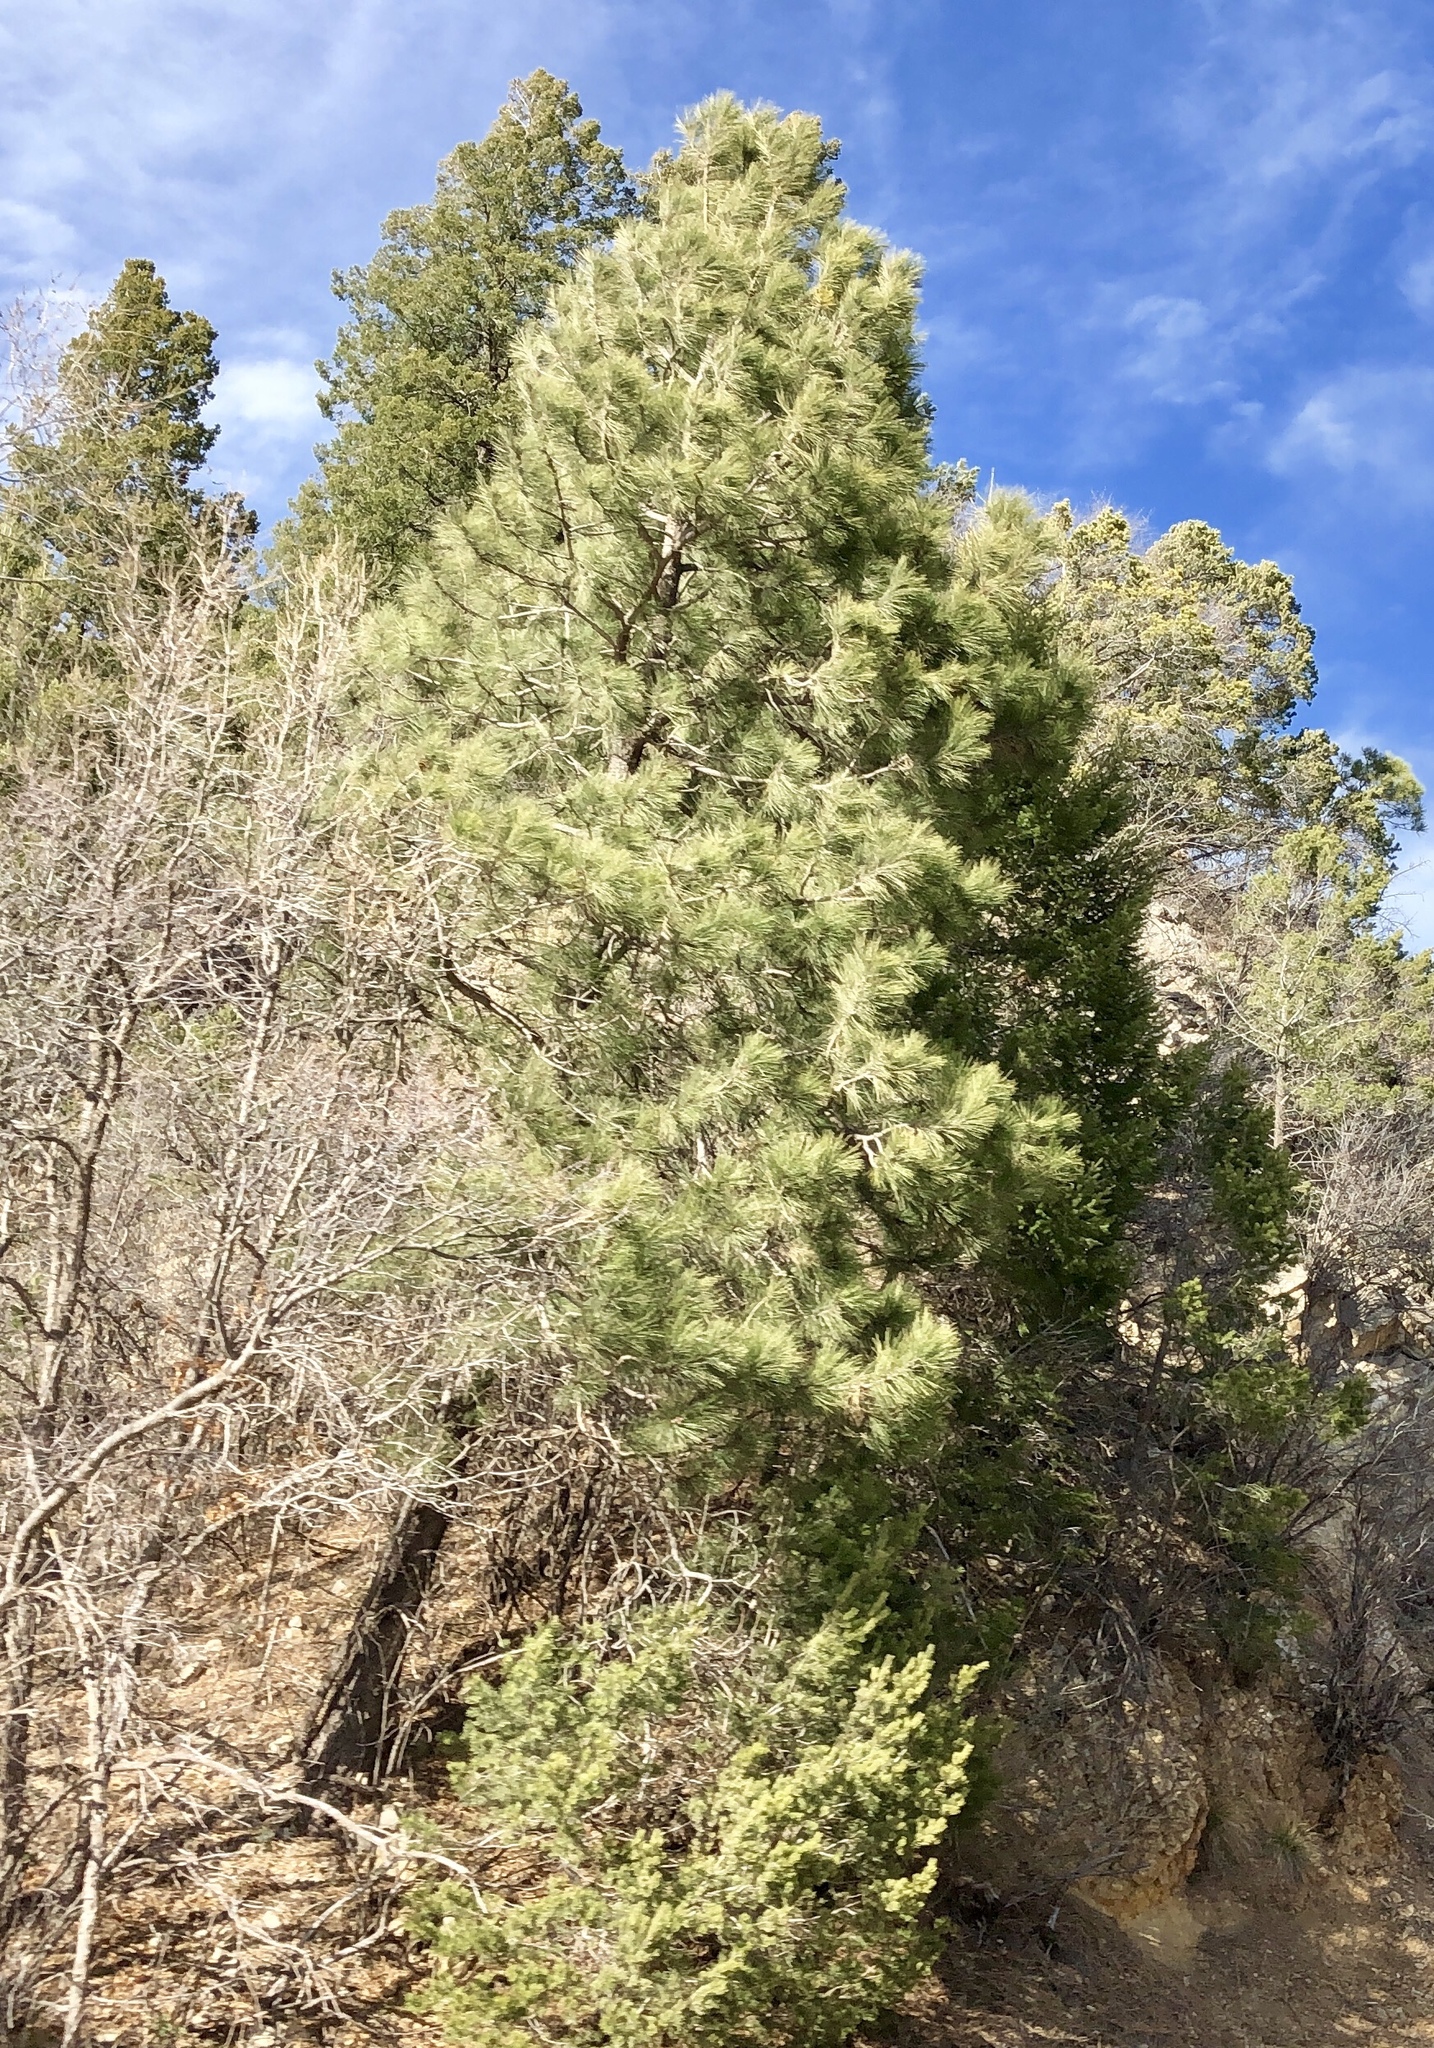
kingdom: Plantae
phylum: Tracheophyta
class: Pinopsida
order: Pinales
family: Pinaceae
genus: Pinus
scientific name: Pinus ponderosa
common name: Western yellow-pine
